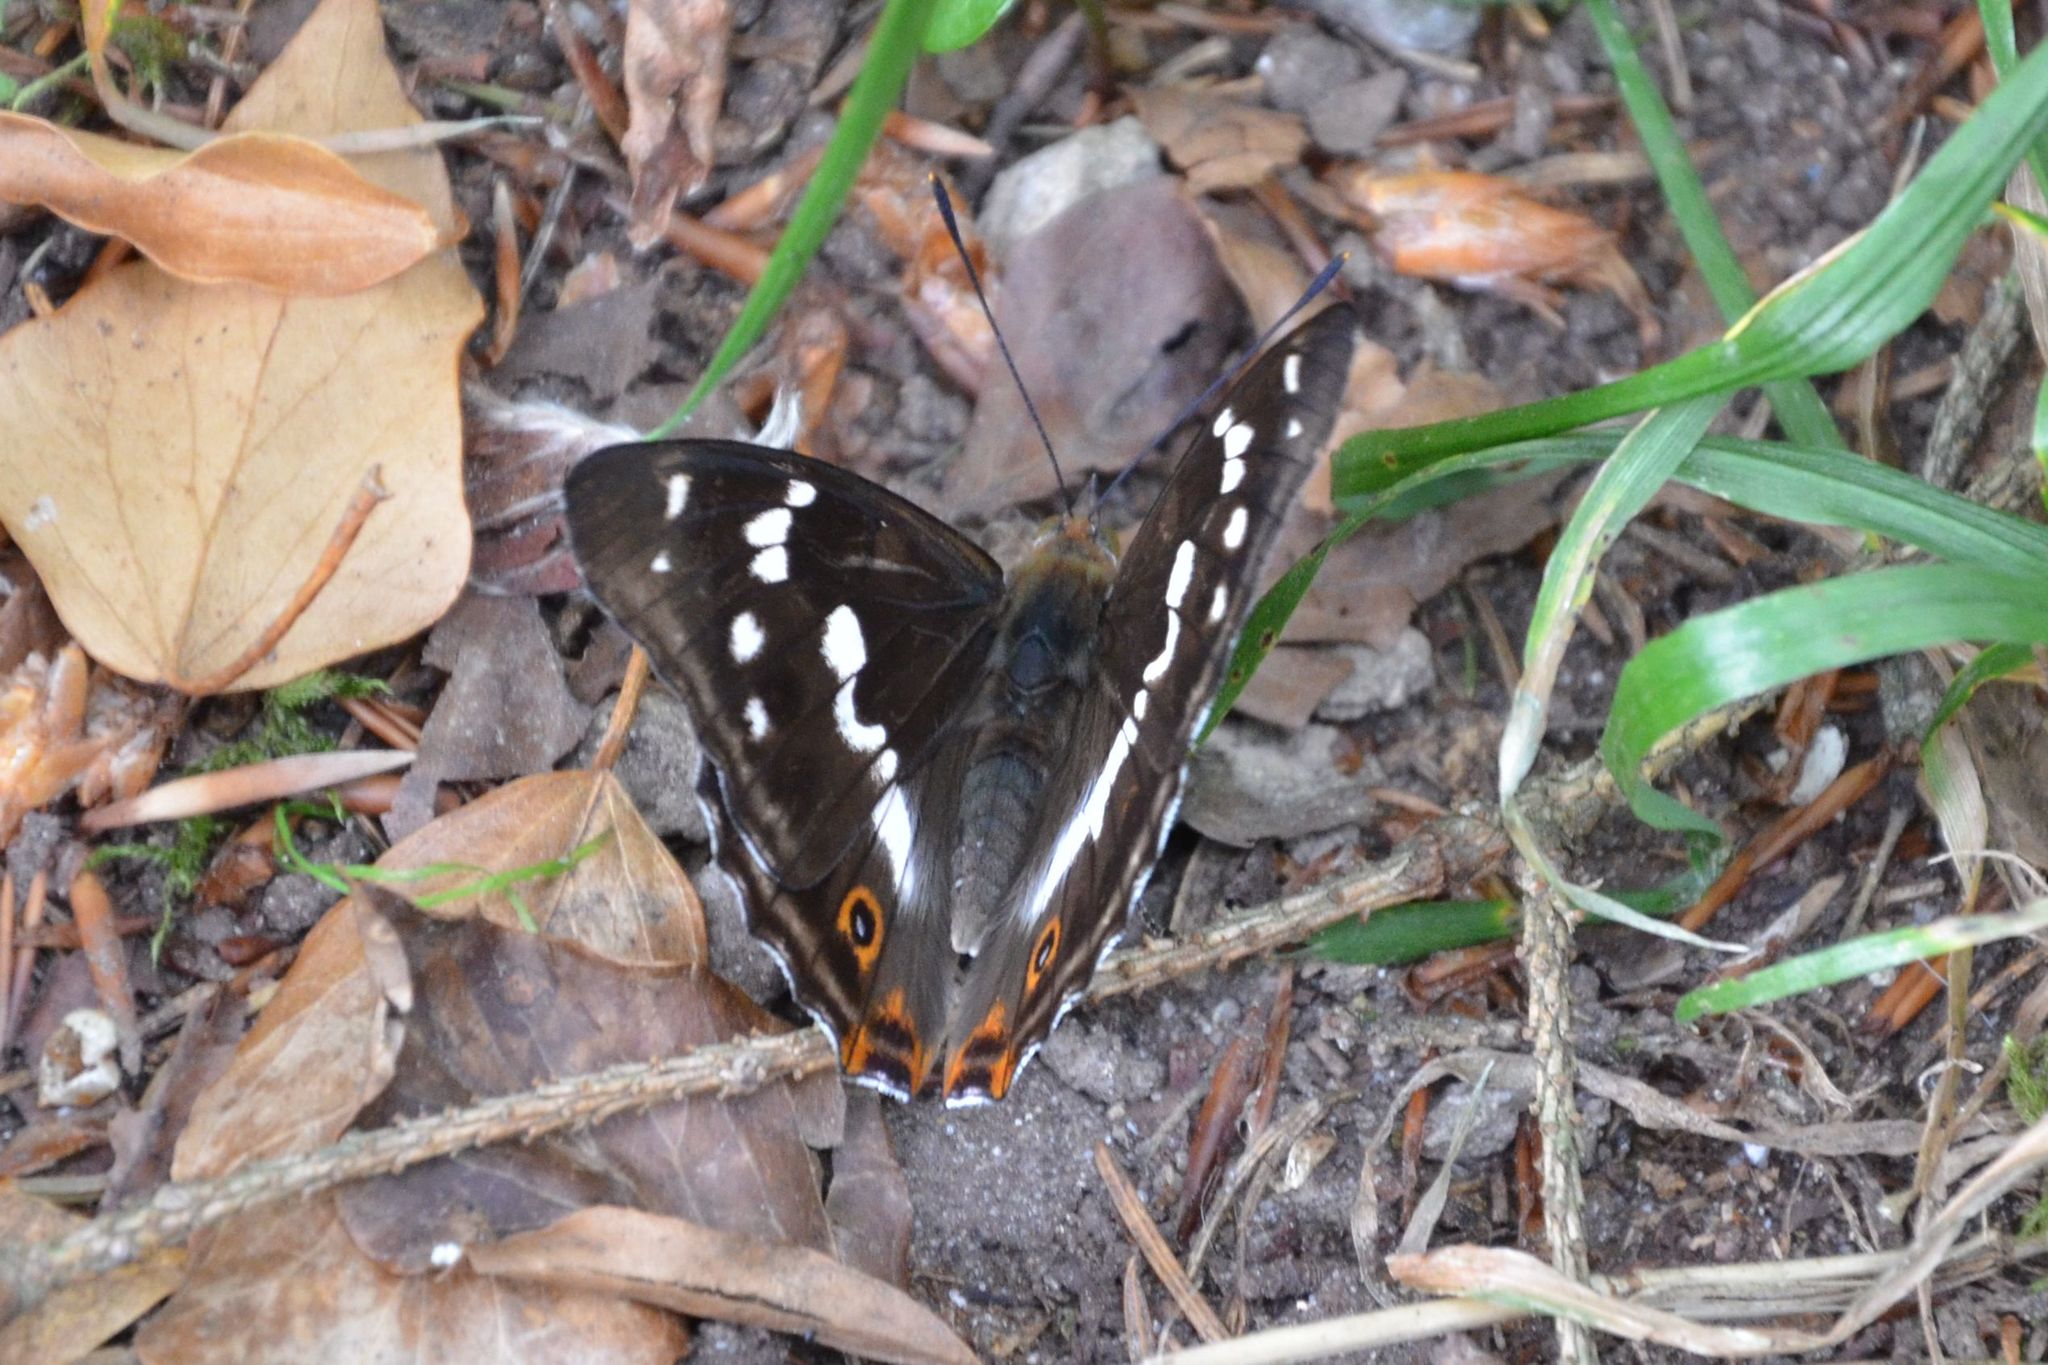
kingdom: Animalia
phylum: Arthropoda
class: Insecta
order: Lepidoptera
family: Nymphalidae
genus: Apatura
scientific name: Apatura iris
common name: Purple emperor
